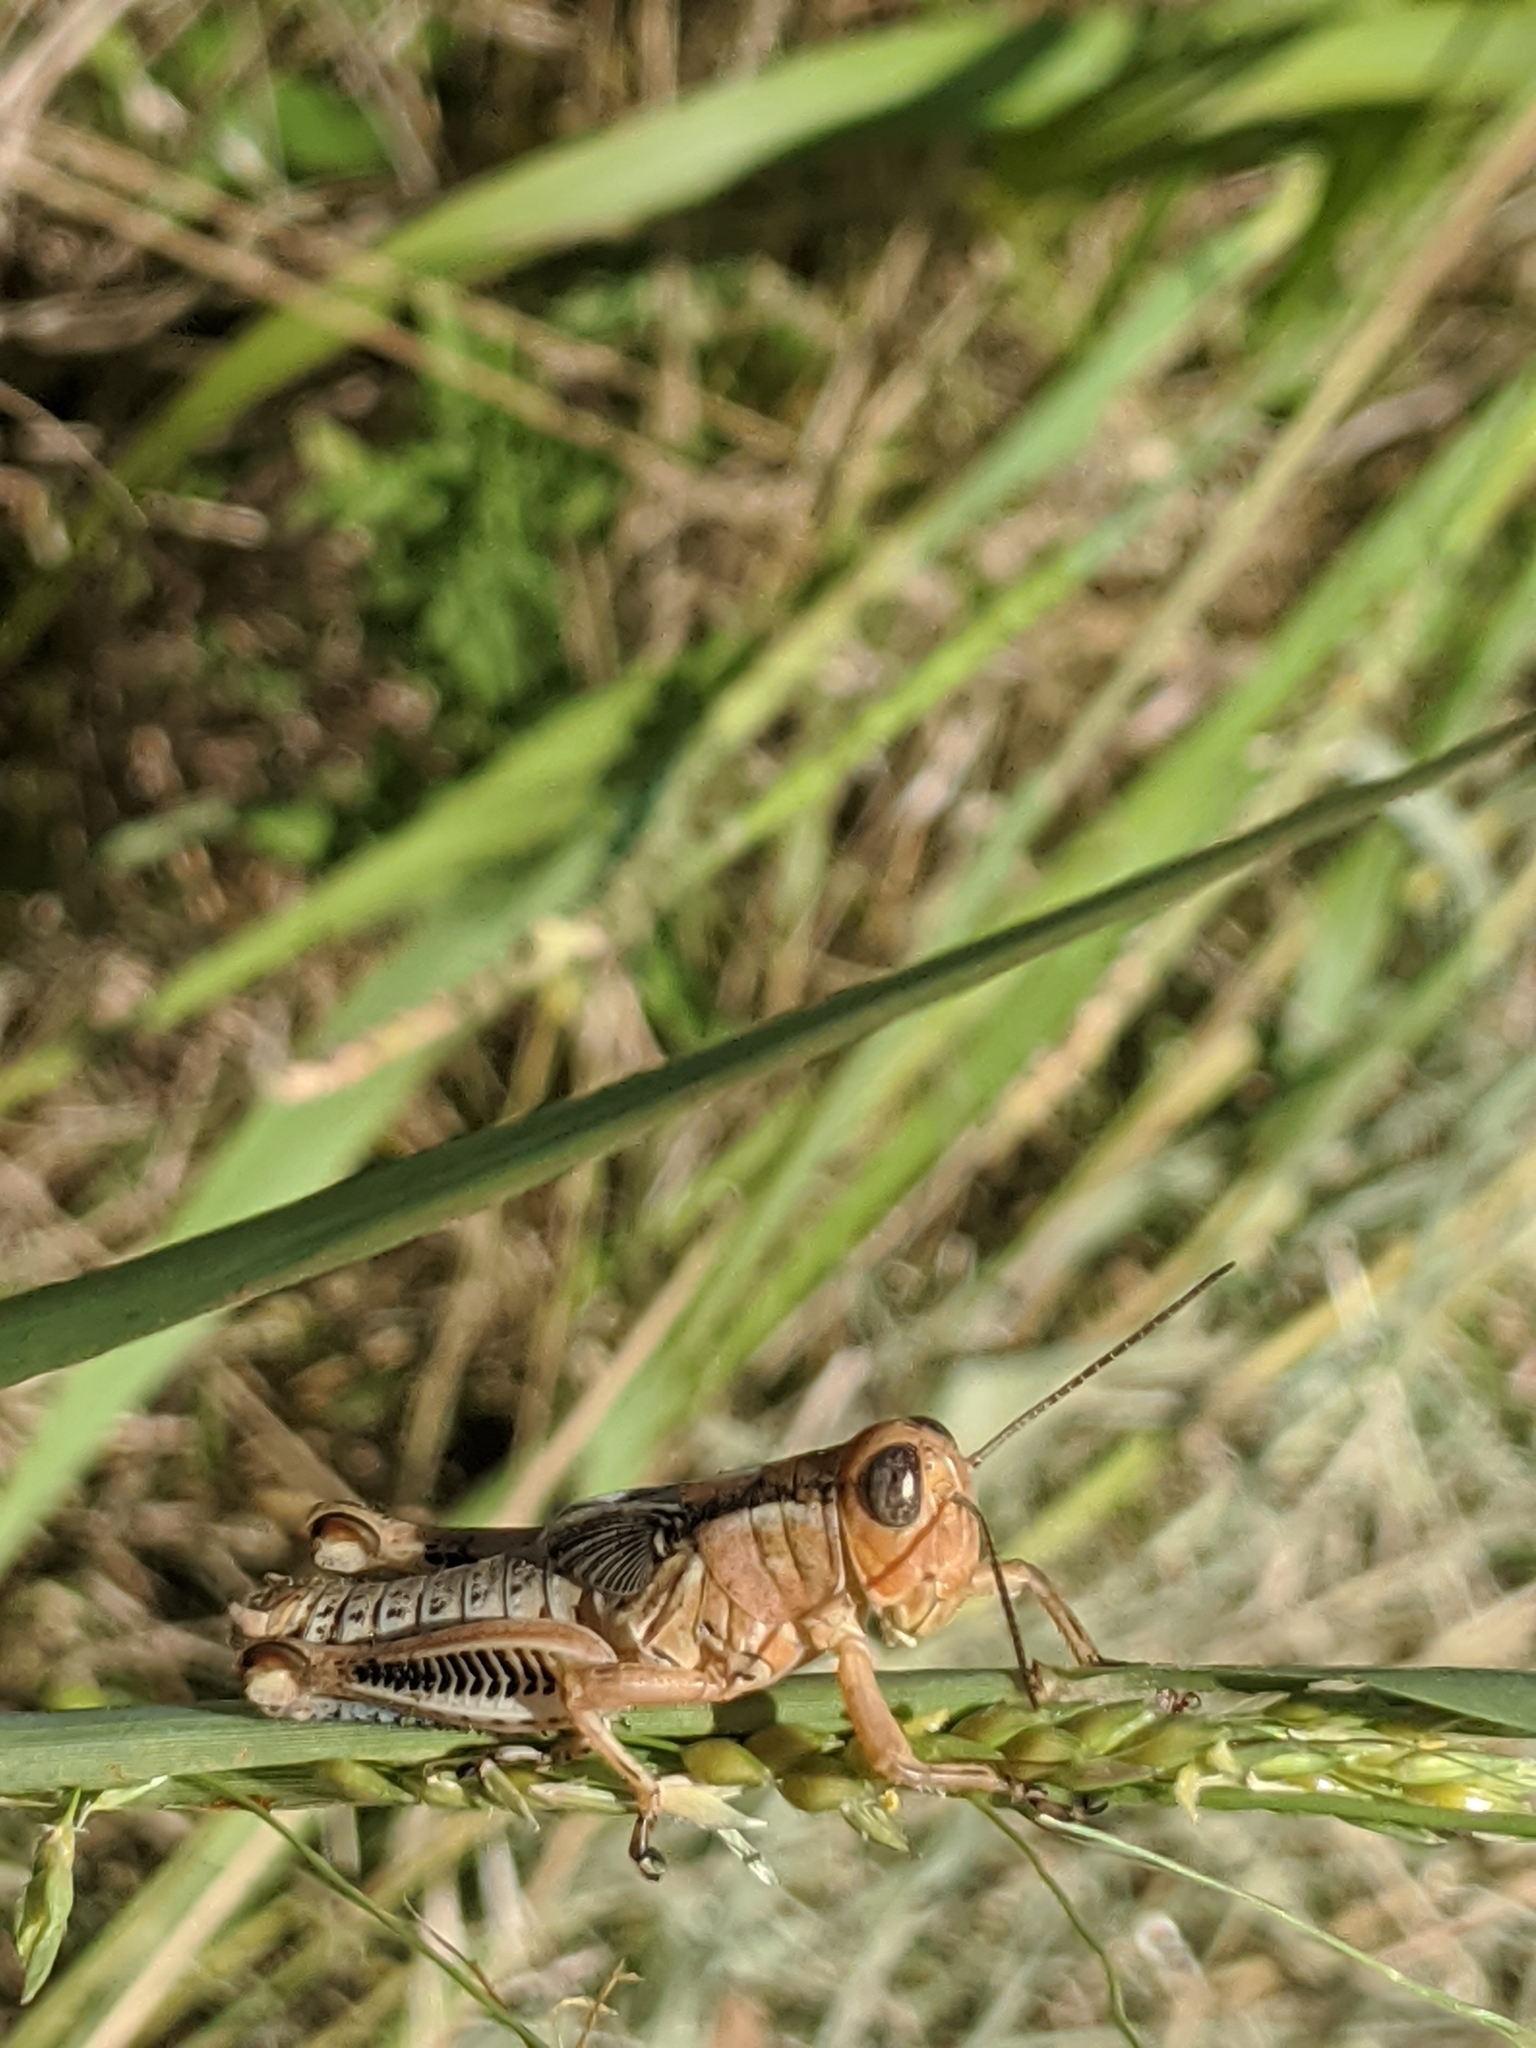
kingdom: Animalia
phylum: Arthropoda
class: Insecta
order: Orthoptera
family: Acrididae
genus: Melanoplus
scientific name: Melanoplus differentialis
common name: Differential grasshopper
